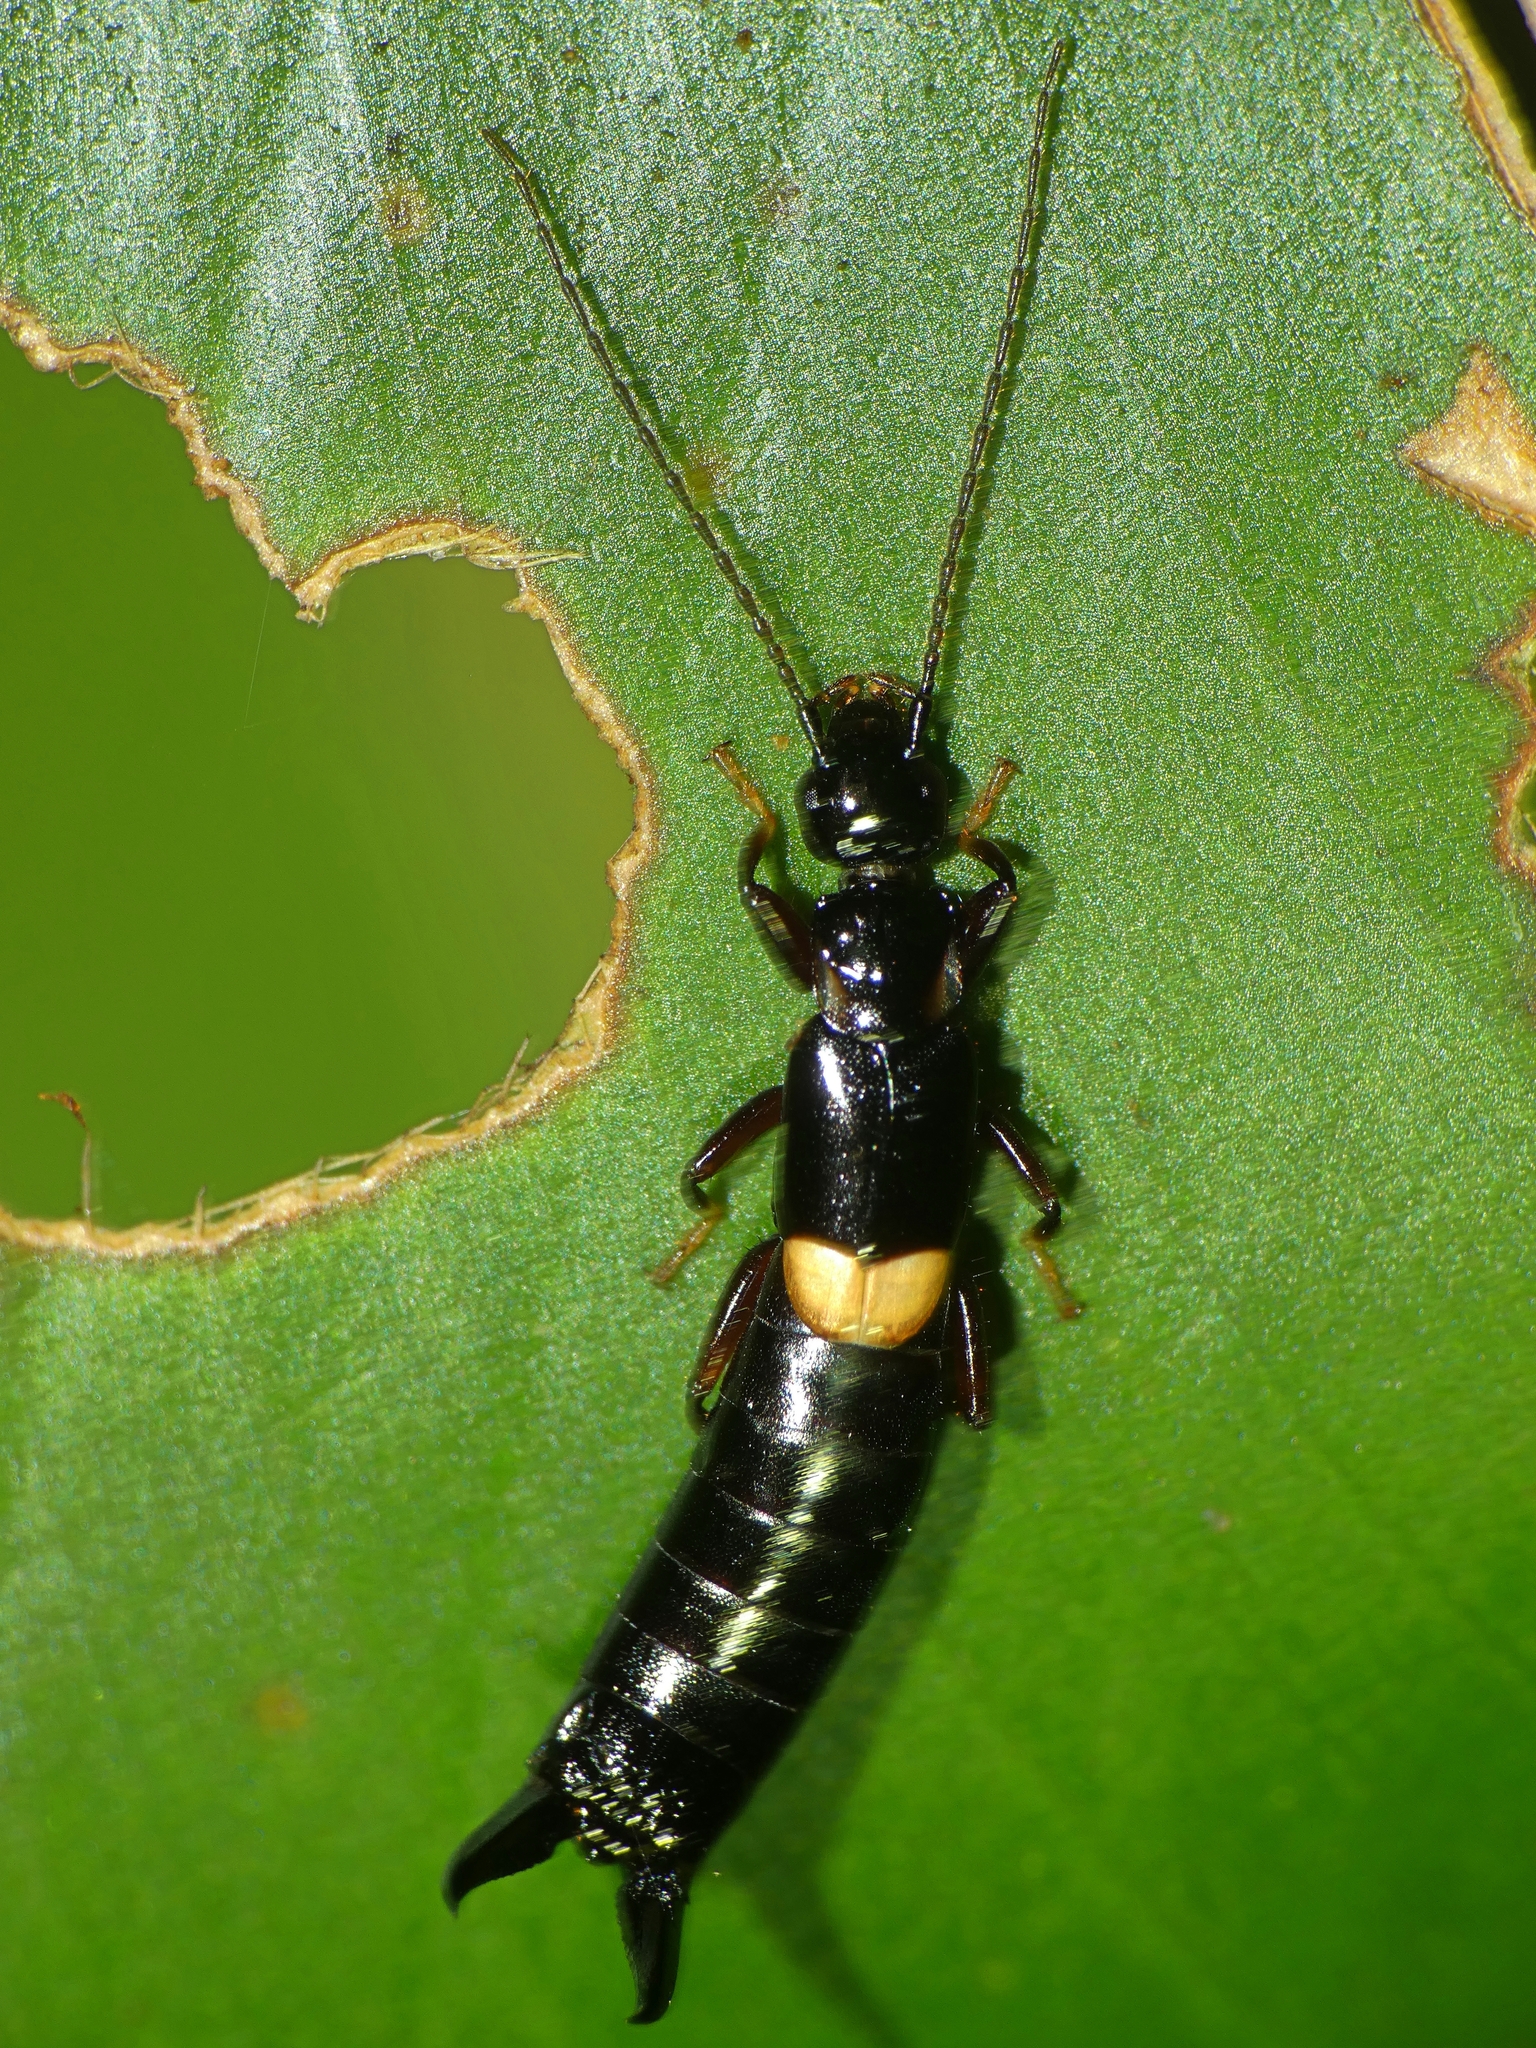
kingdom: Animalia
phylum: Arthropoda
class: Insecta
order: Dermaptera
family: Chelisochidae
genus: Proreus
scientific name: Proreus duroides
